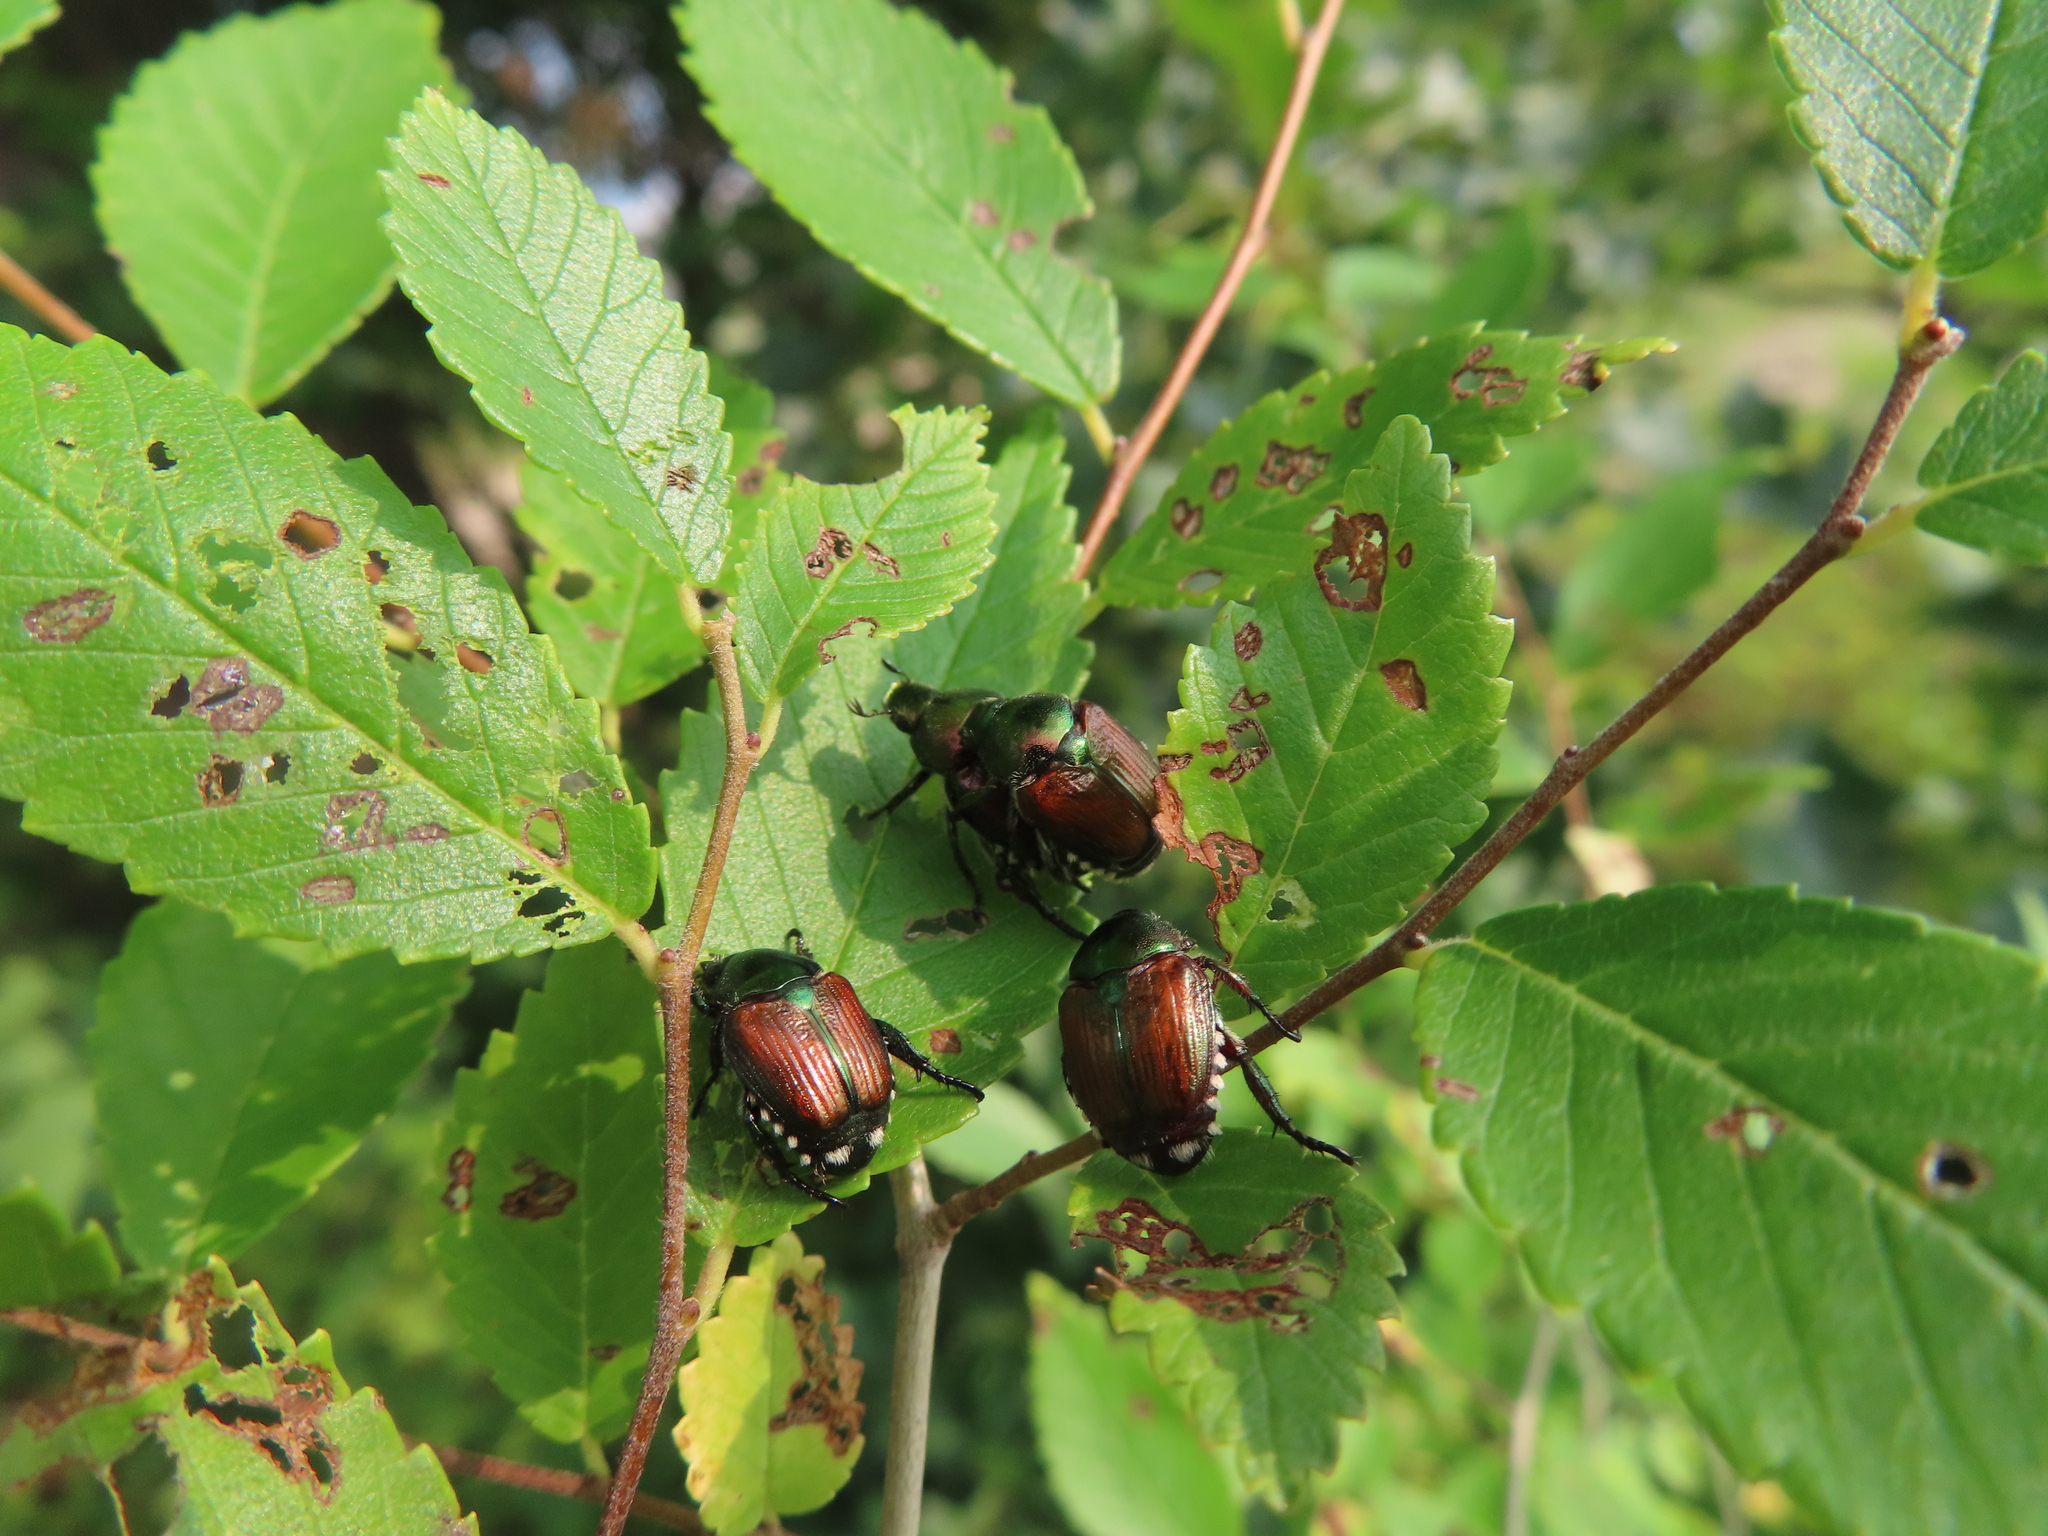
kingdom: Animalia
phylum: Arthropoda
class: Insecta
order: Coleoptera
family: Scarabaeidae
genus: Popillia
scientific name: Popillia japonica
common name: Japanese beetle
